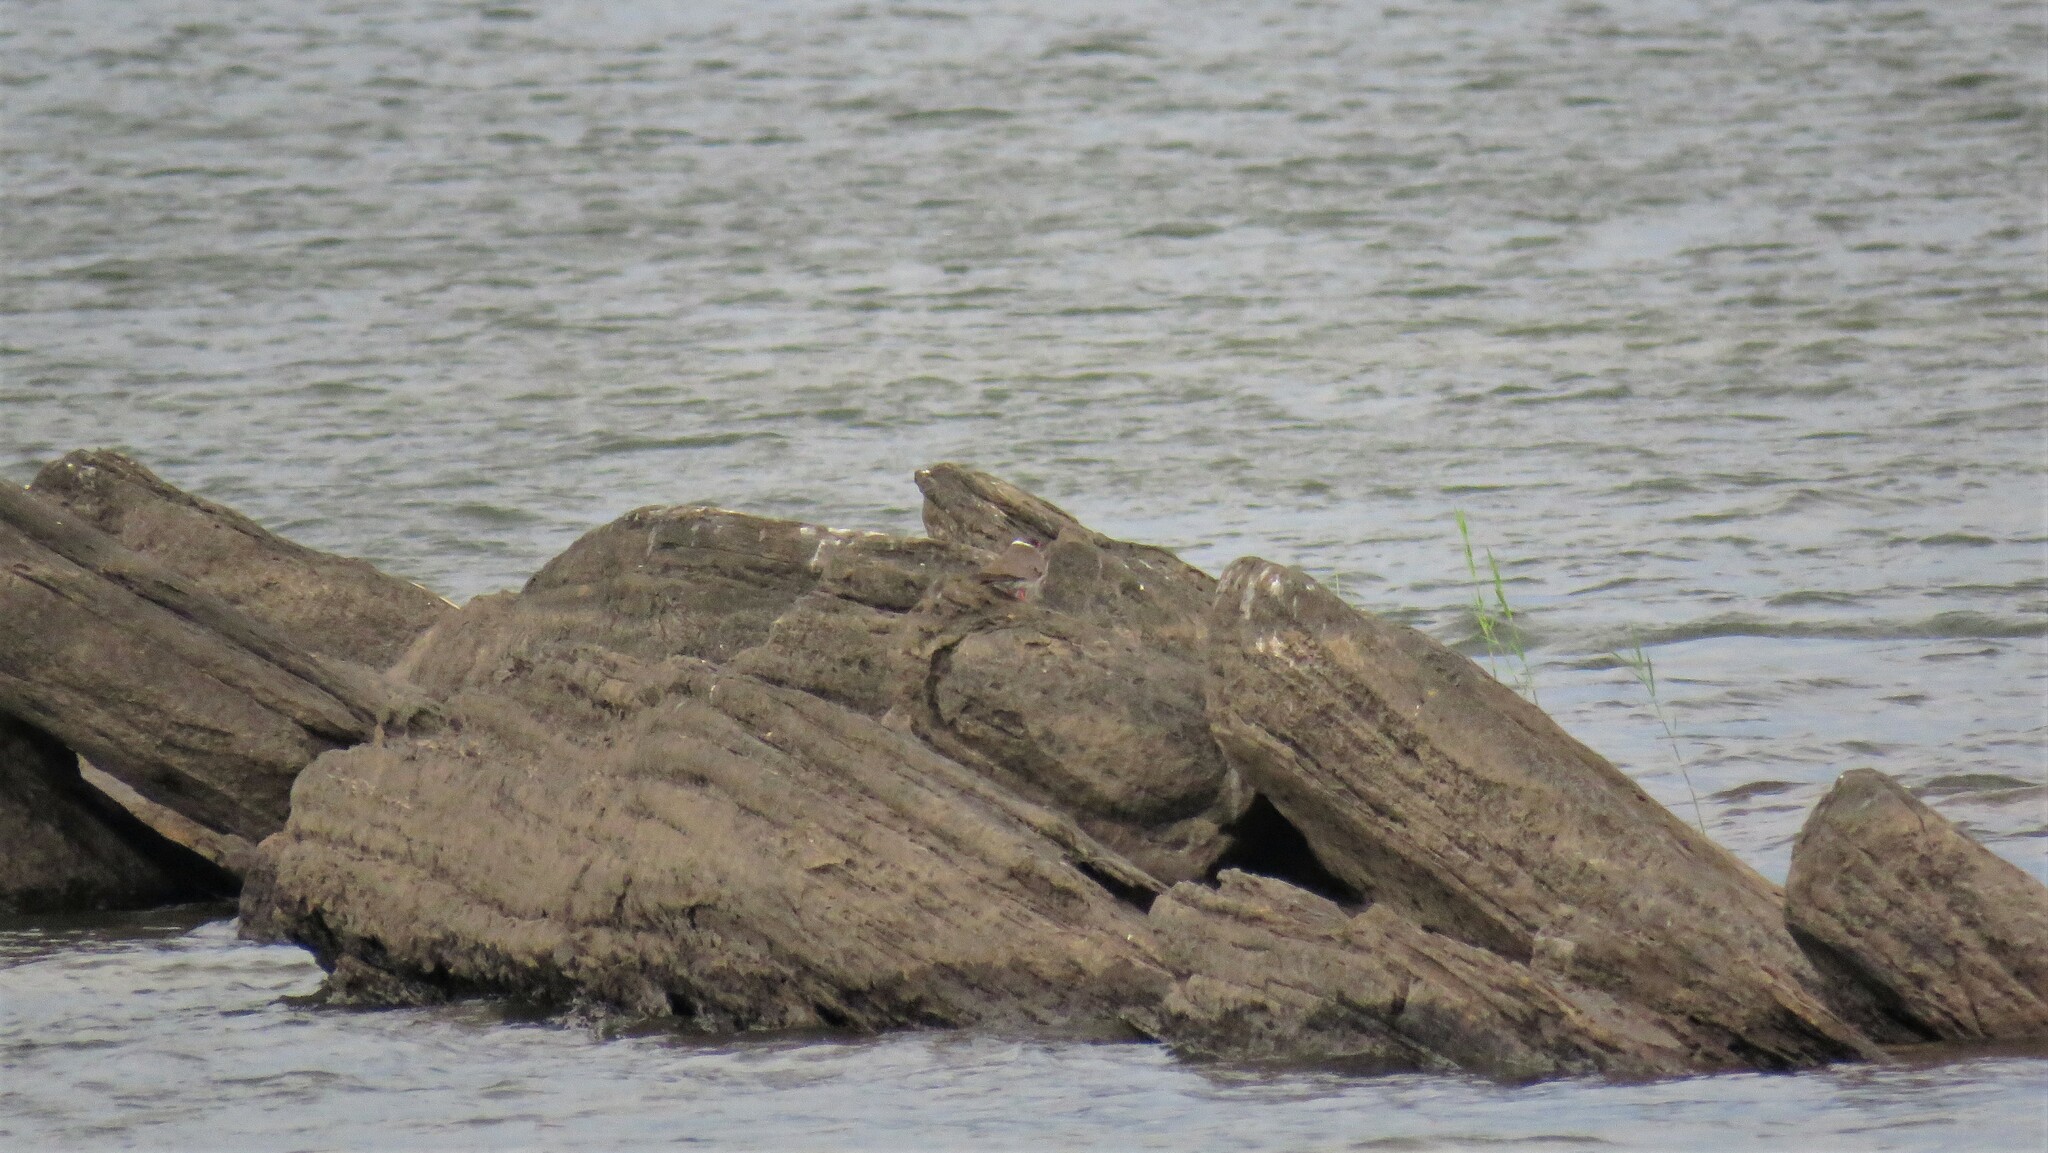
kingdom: Animalia
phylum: Chordata
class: Aves
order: Charadriiformes
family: Glareolidae
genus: Glareola
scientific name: Glareola nuchalis
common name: Rock pratincole
